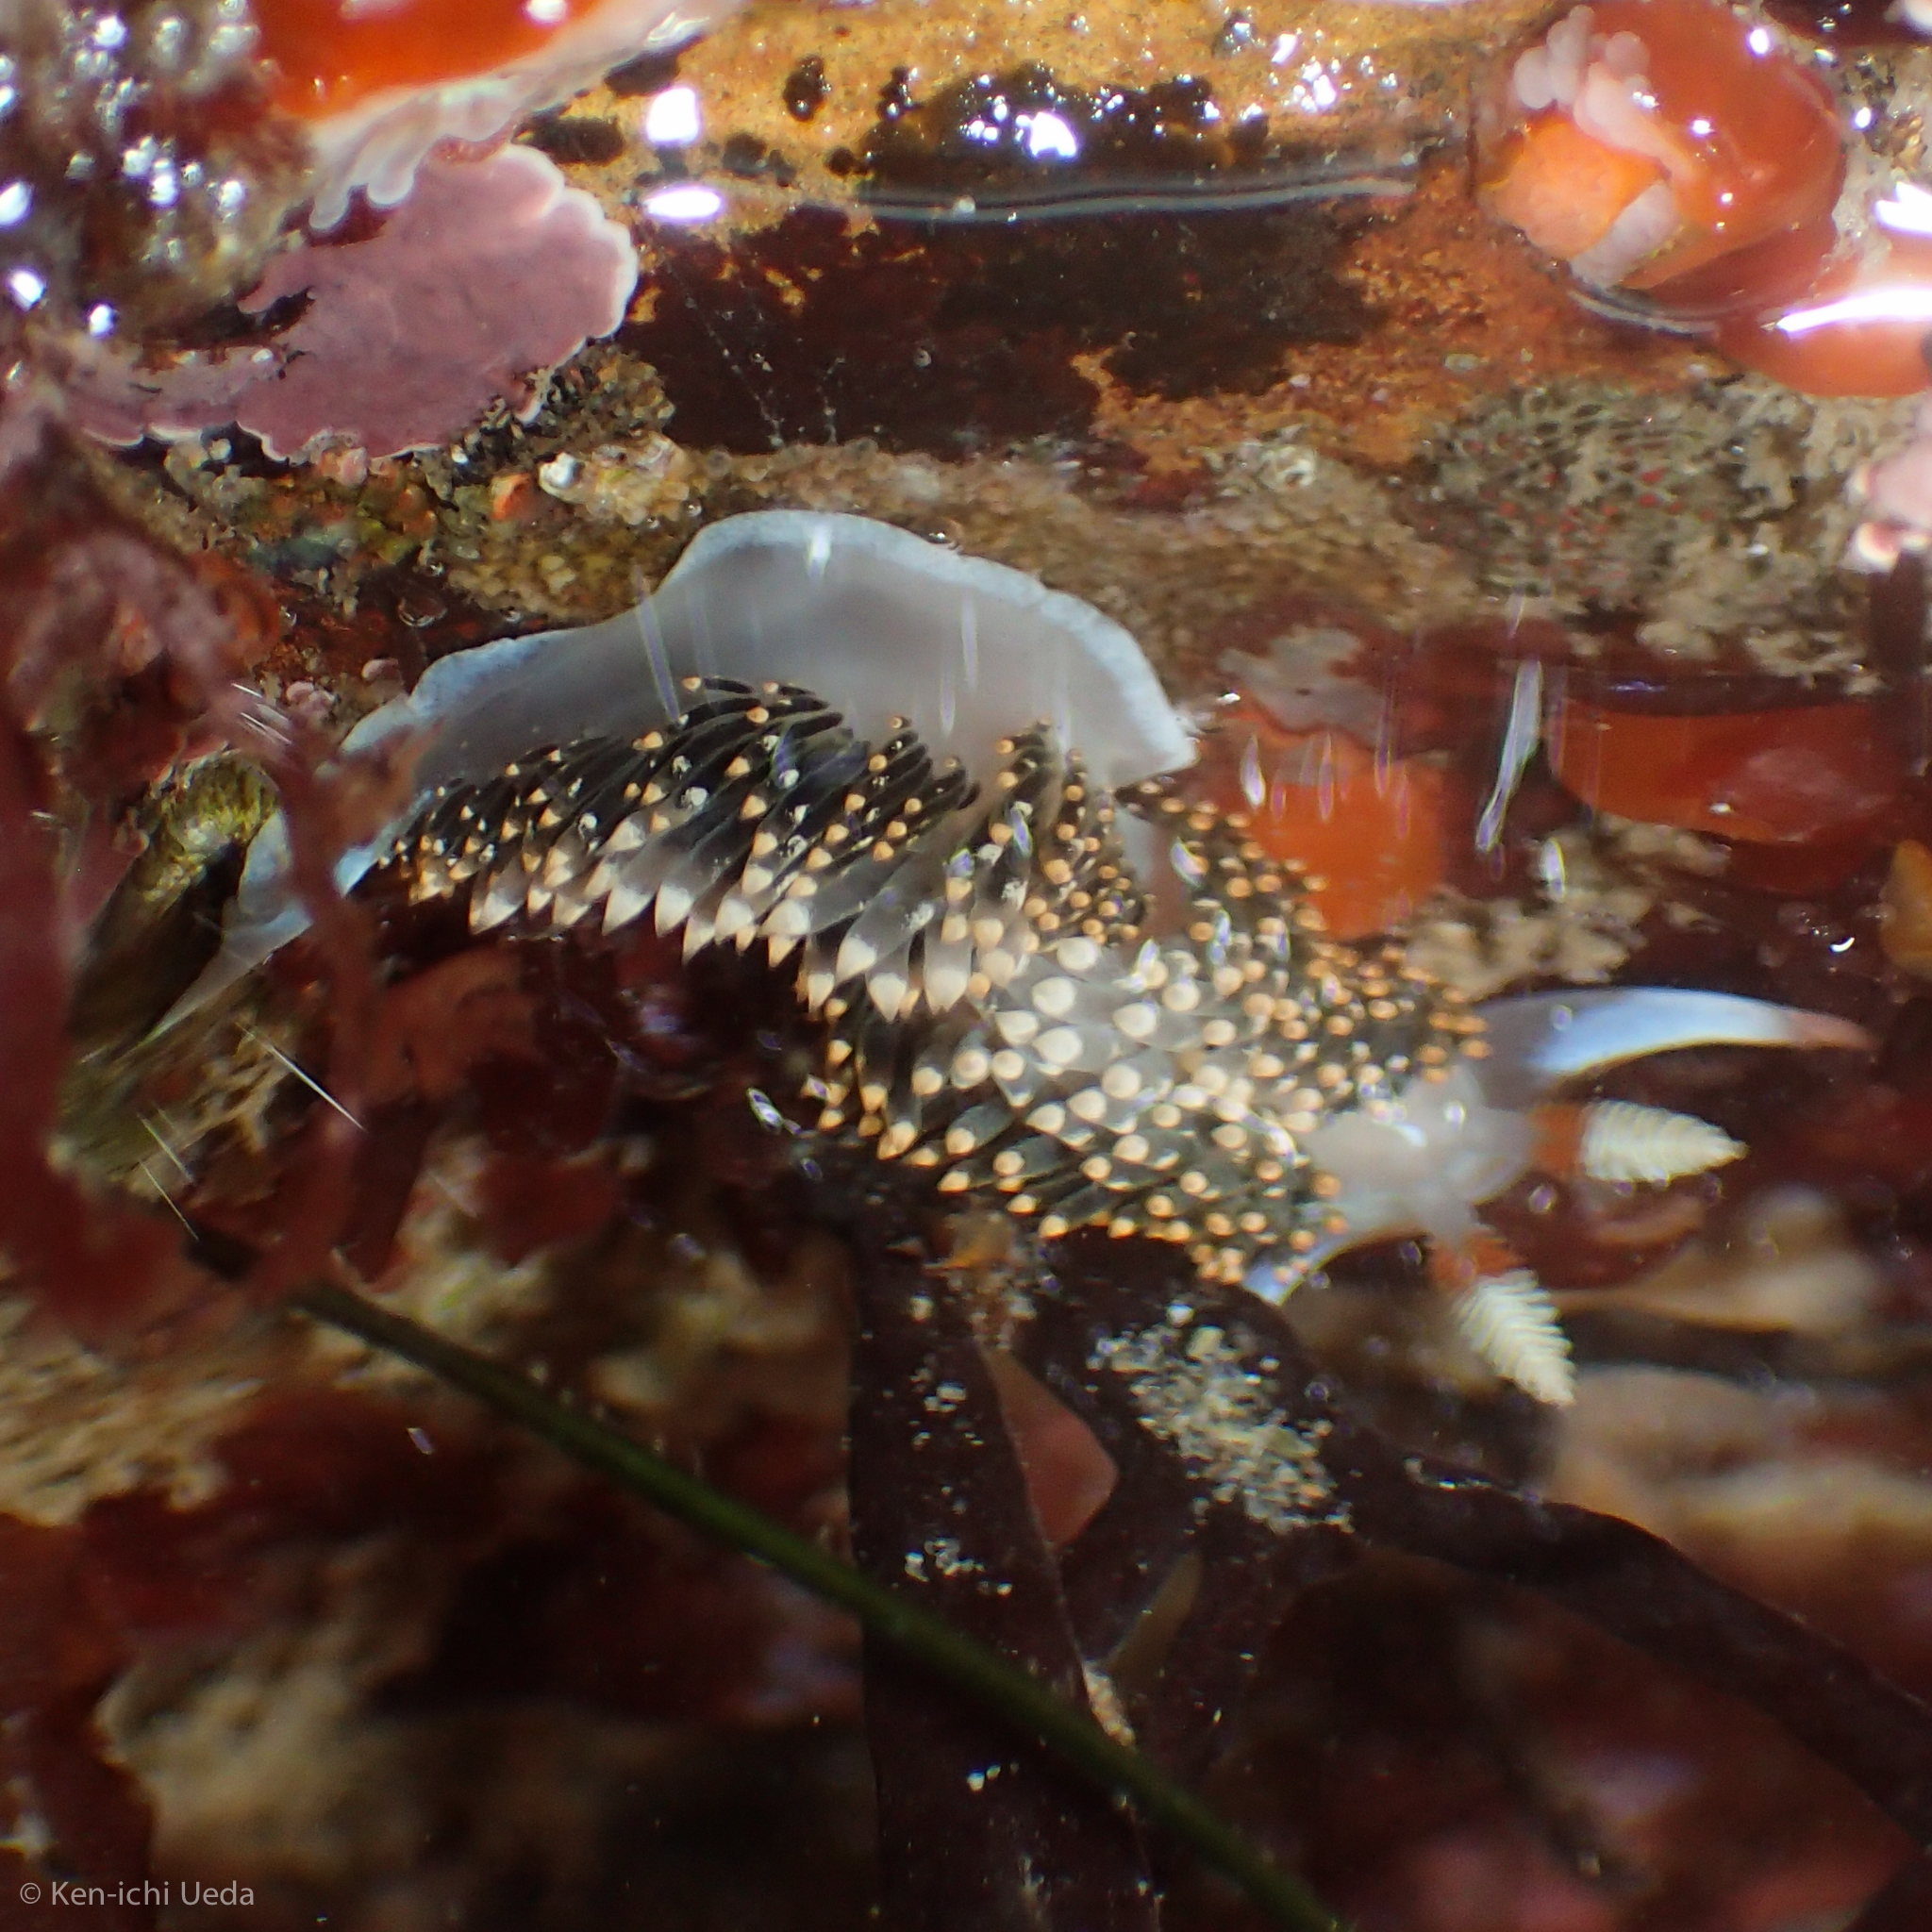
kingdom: Animalia
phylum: Mollusca
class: Gastropoda
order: Nudibranchia
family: Facelinidae
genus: Phidiana
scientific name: Phidiana hiltoni
